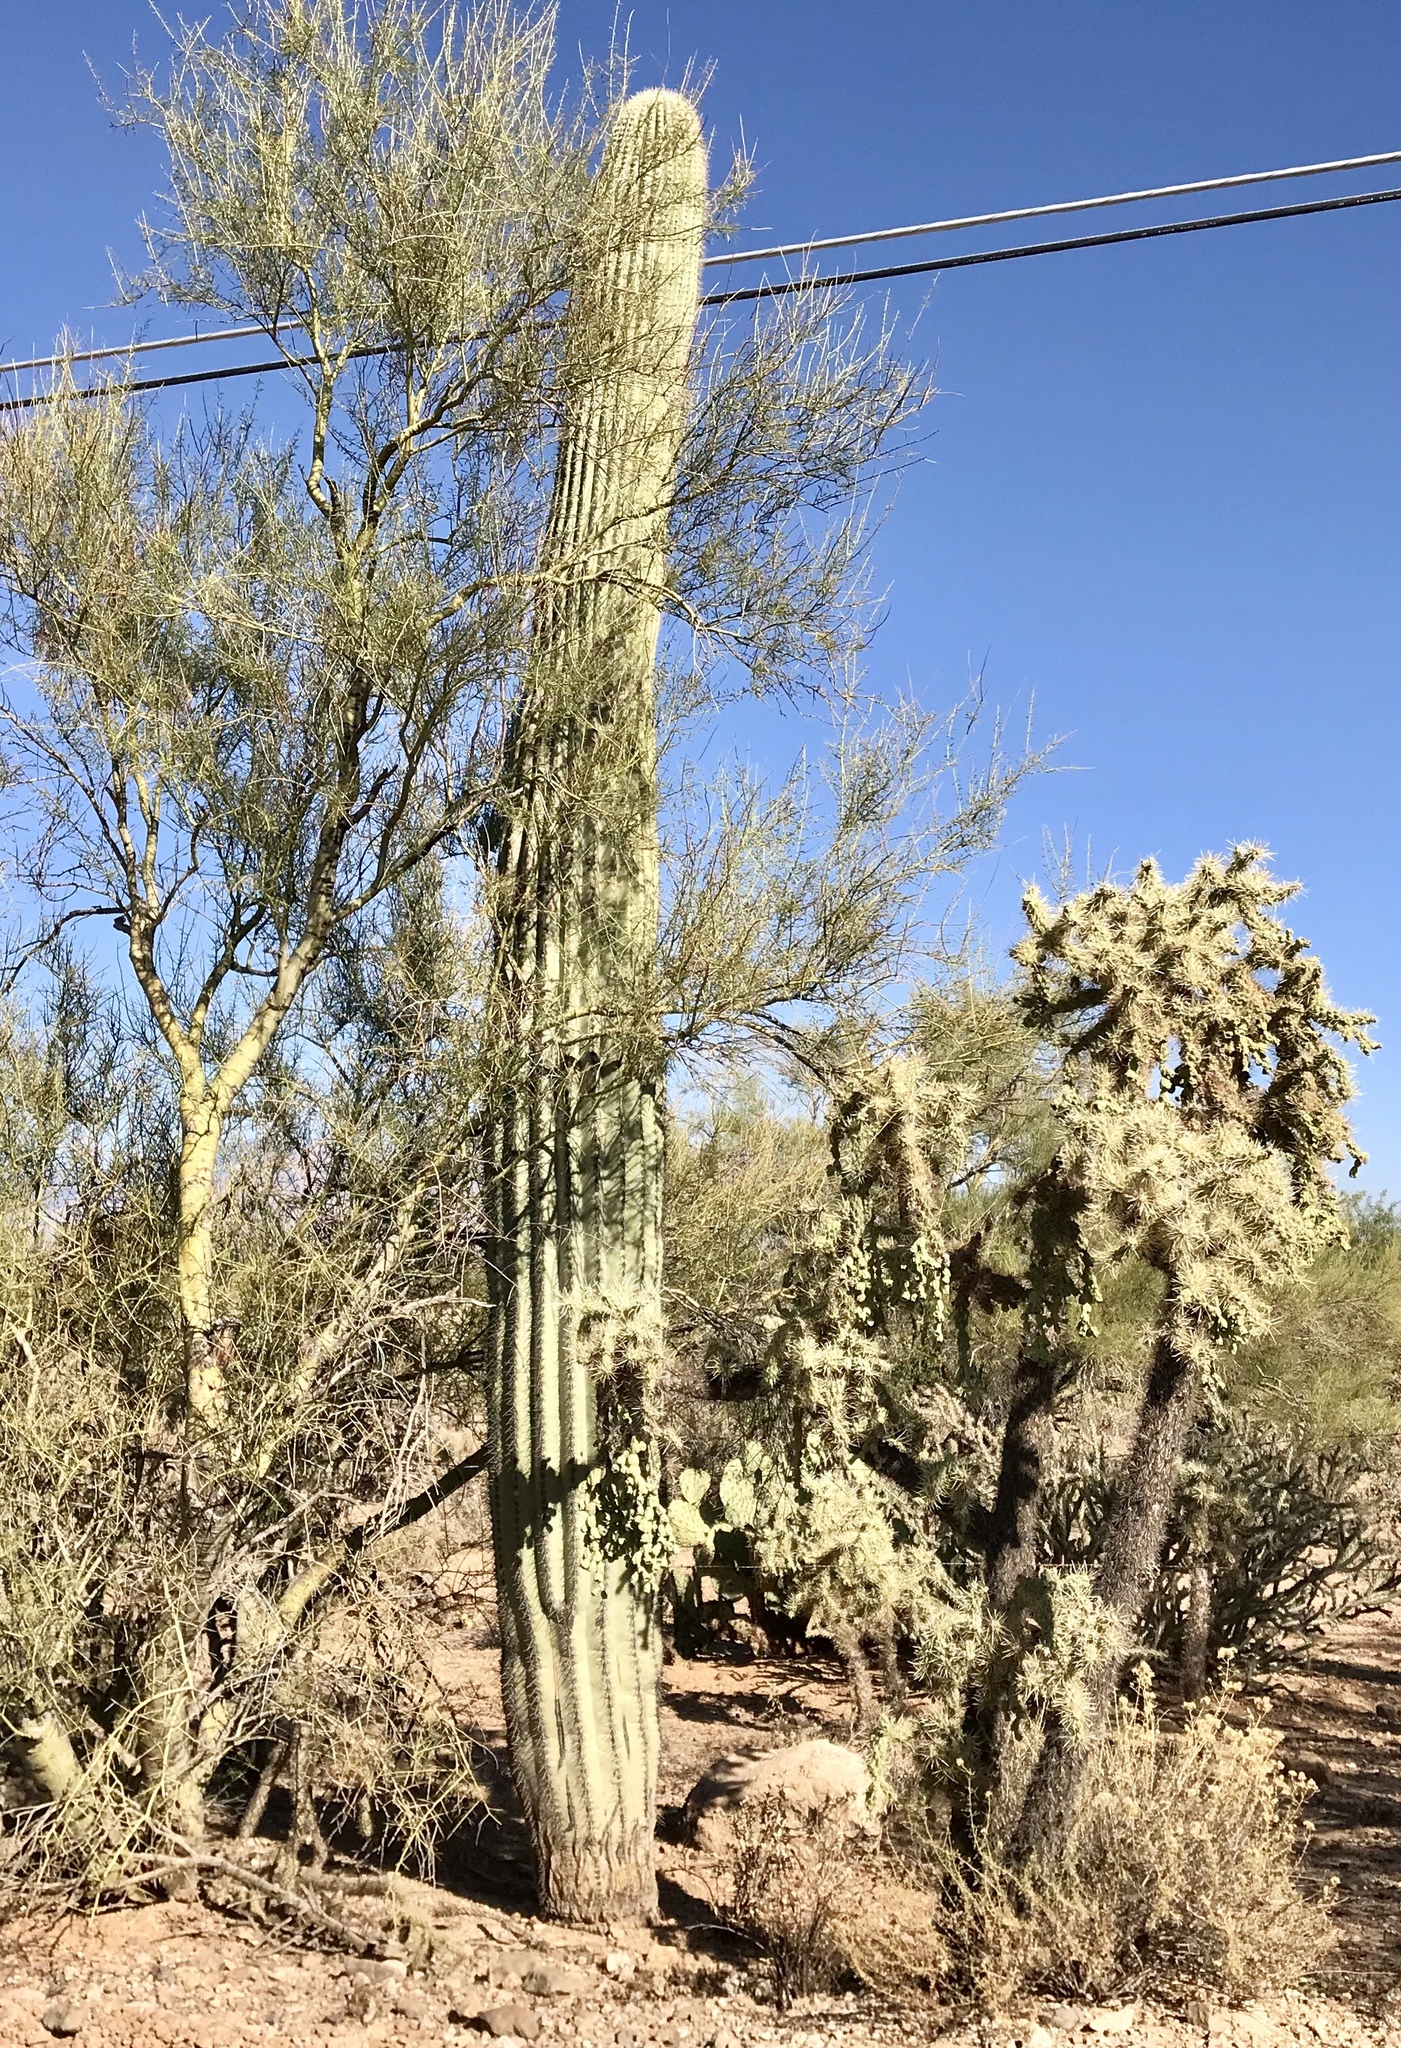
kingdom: Plantae
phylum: Tracheophyta
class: Magnoliopsida
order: Caryophyllales
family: Cactaceae
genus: Carnegiea
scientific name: Carnegiea gigantea
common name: Saguaro
